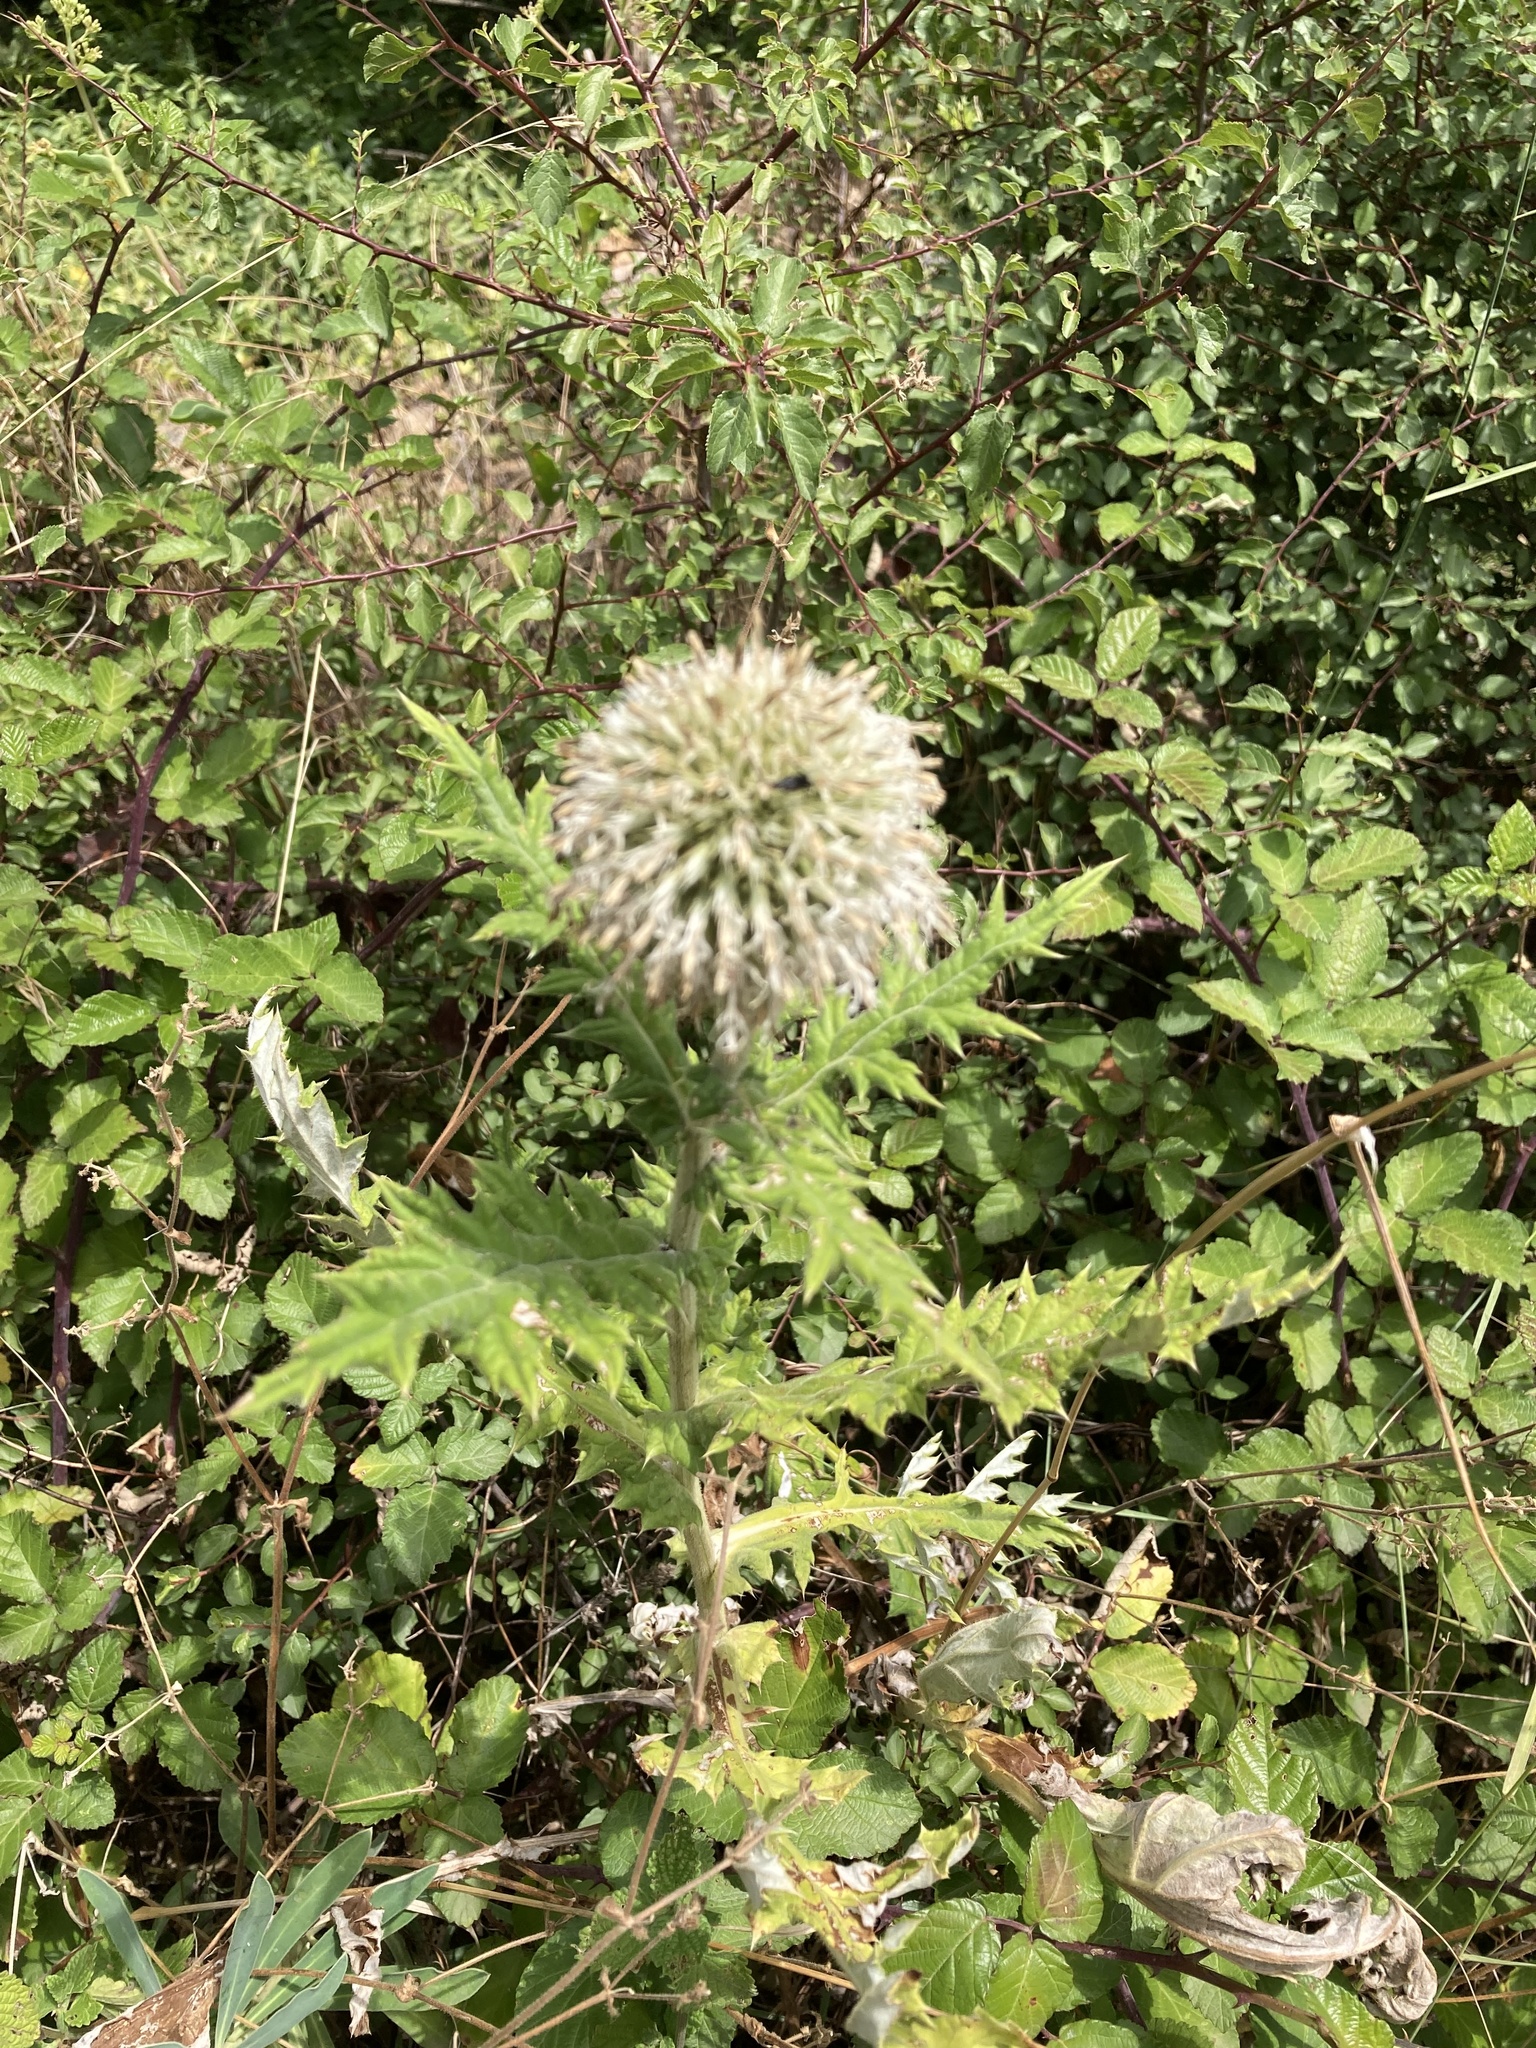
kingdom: Plantae
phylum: Tracheophyta
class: Magnoliopsida
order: Asterales
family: Asteraceae
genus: Echinops
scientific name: Echinops sphaerocephalus
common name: Glandular globe-thistle
